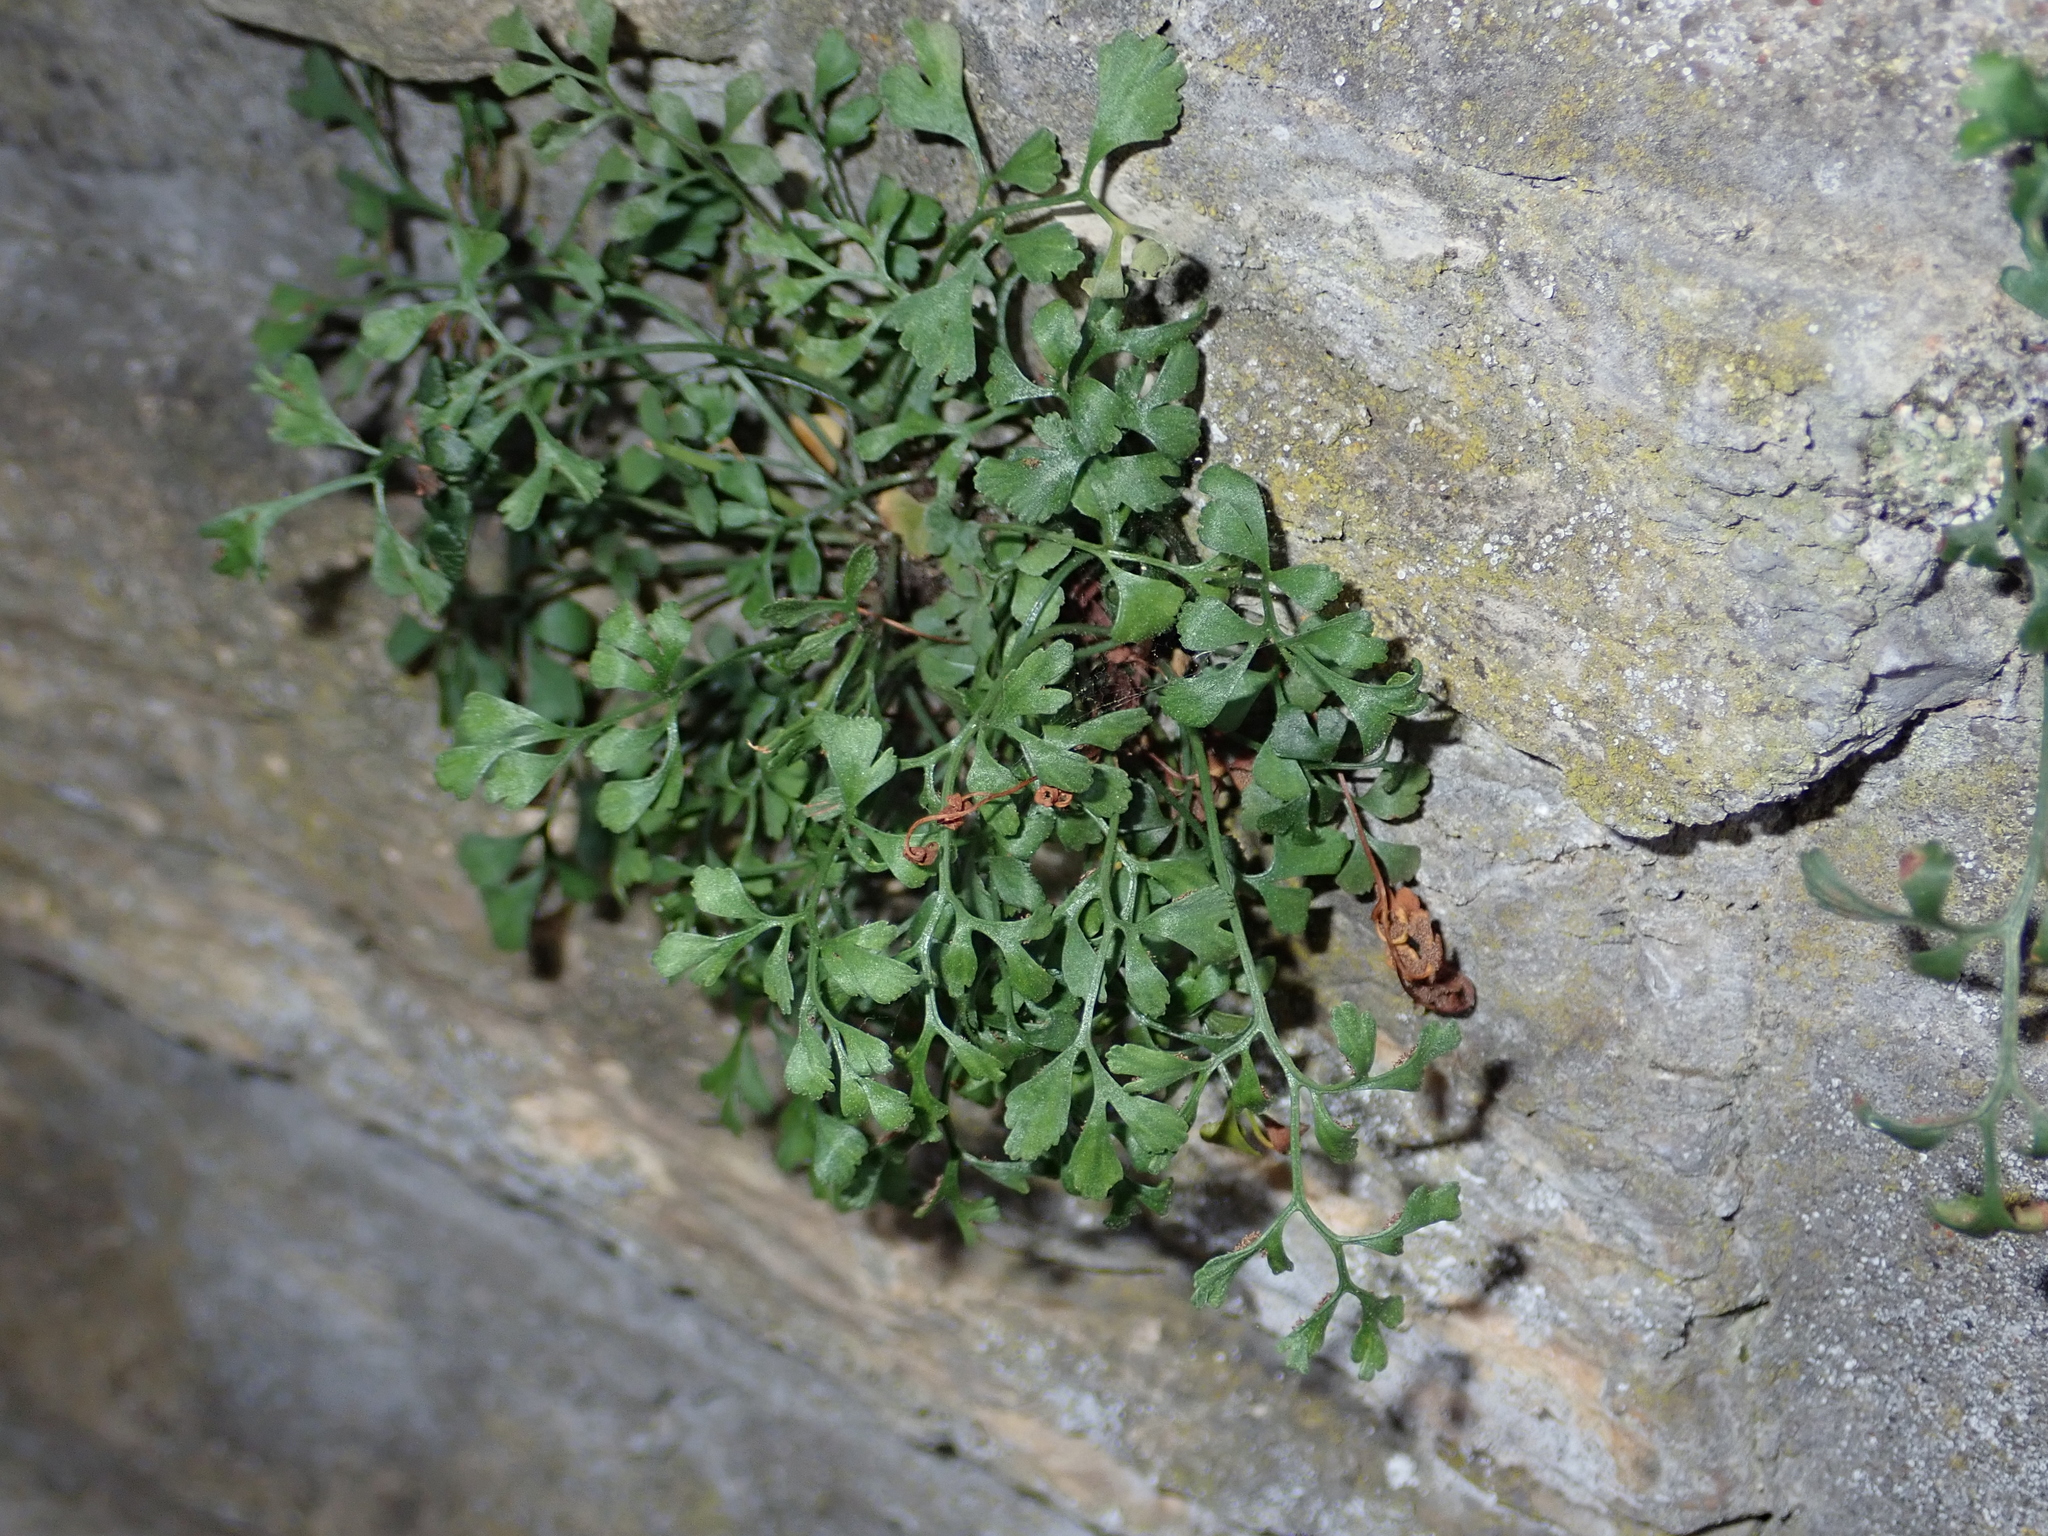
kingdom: Plantae
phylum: Tracheophyta
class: Polypodiopsida
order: Polypodiales
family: Aspleniaceae
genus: Asplenium
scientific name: Asplenium ruta-muraria
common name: Wall-rue
